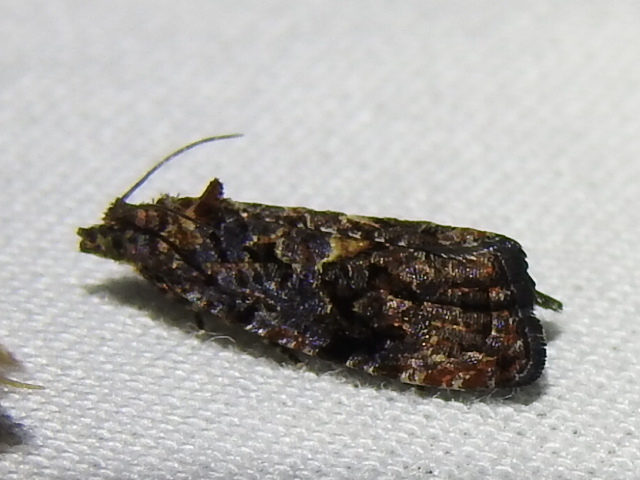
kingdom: Animalia
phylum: Arthropoda
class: Insecta
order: Lepidoptera
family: Tortricidae
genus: Endothenia
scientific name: Endothenia hebesana
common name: Verbena bud moth
